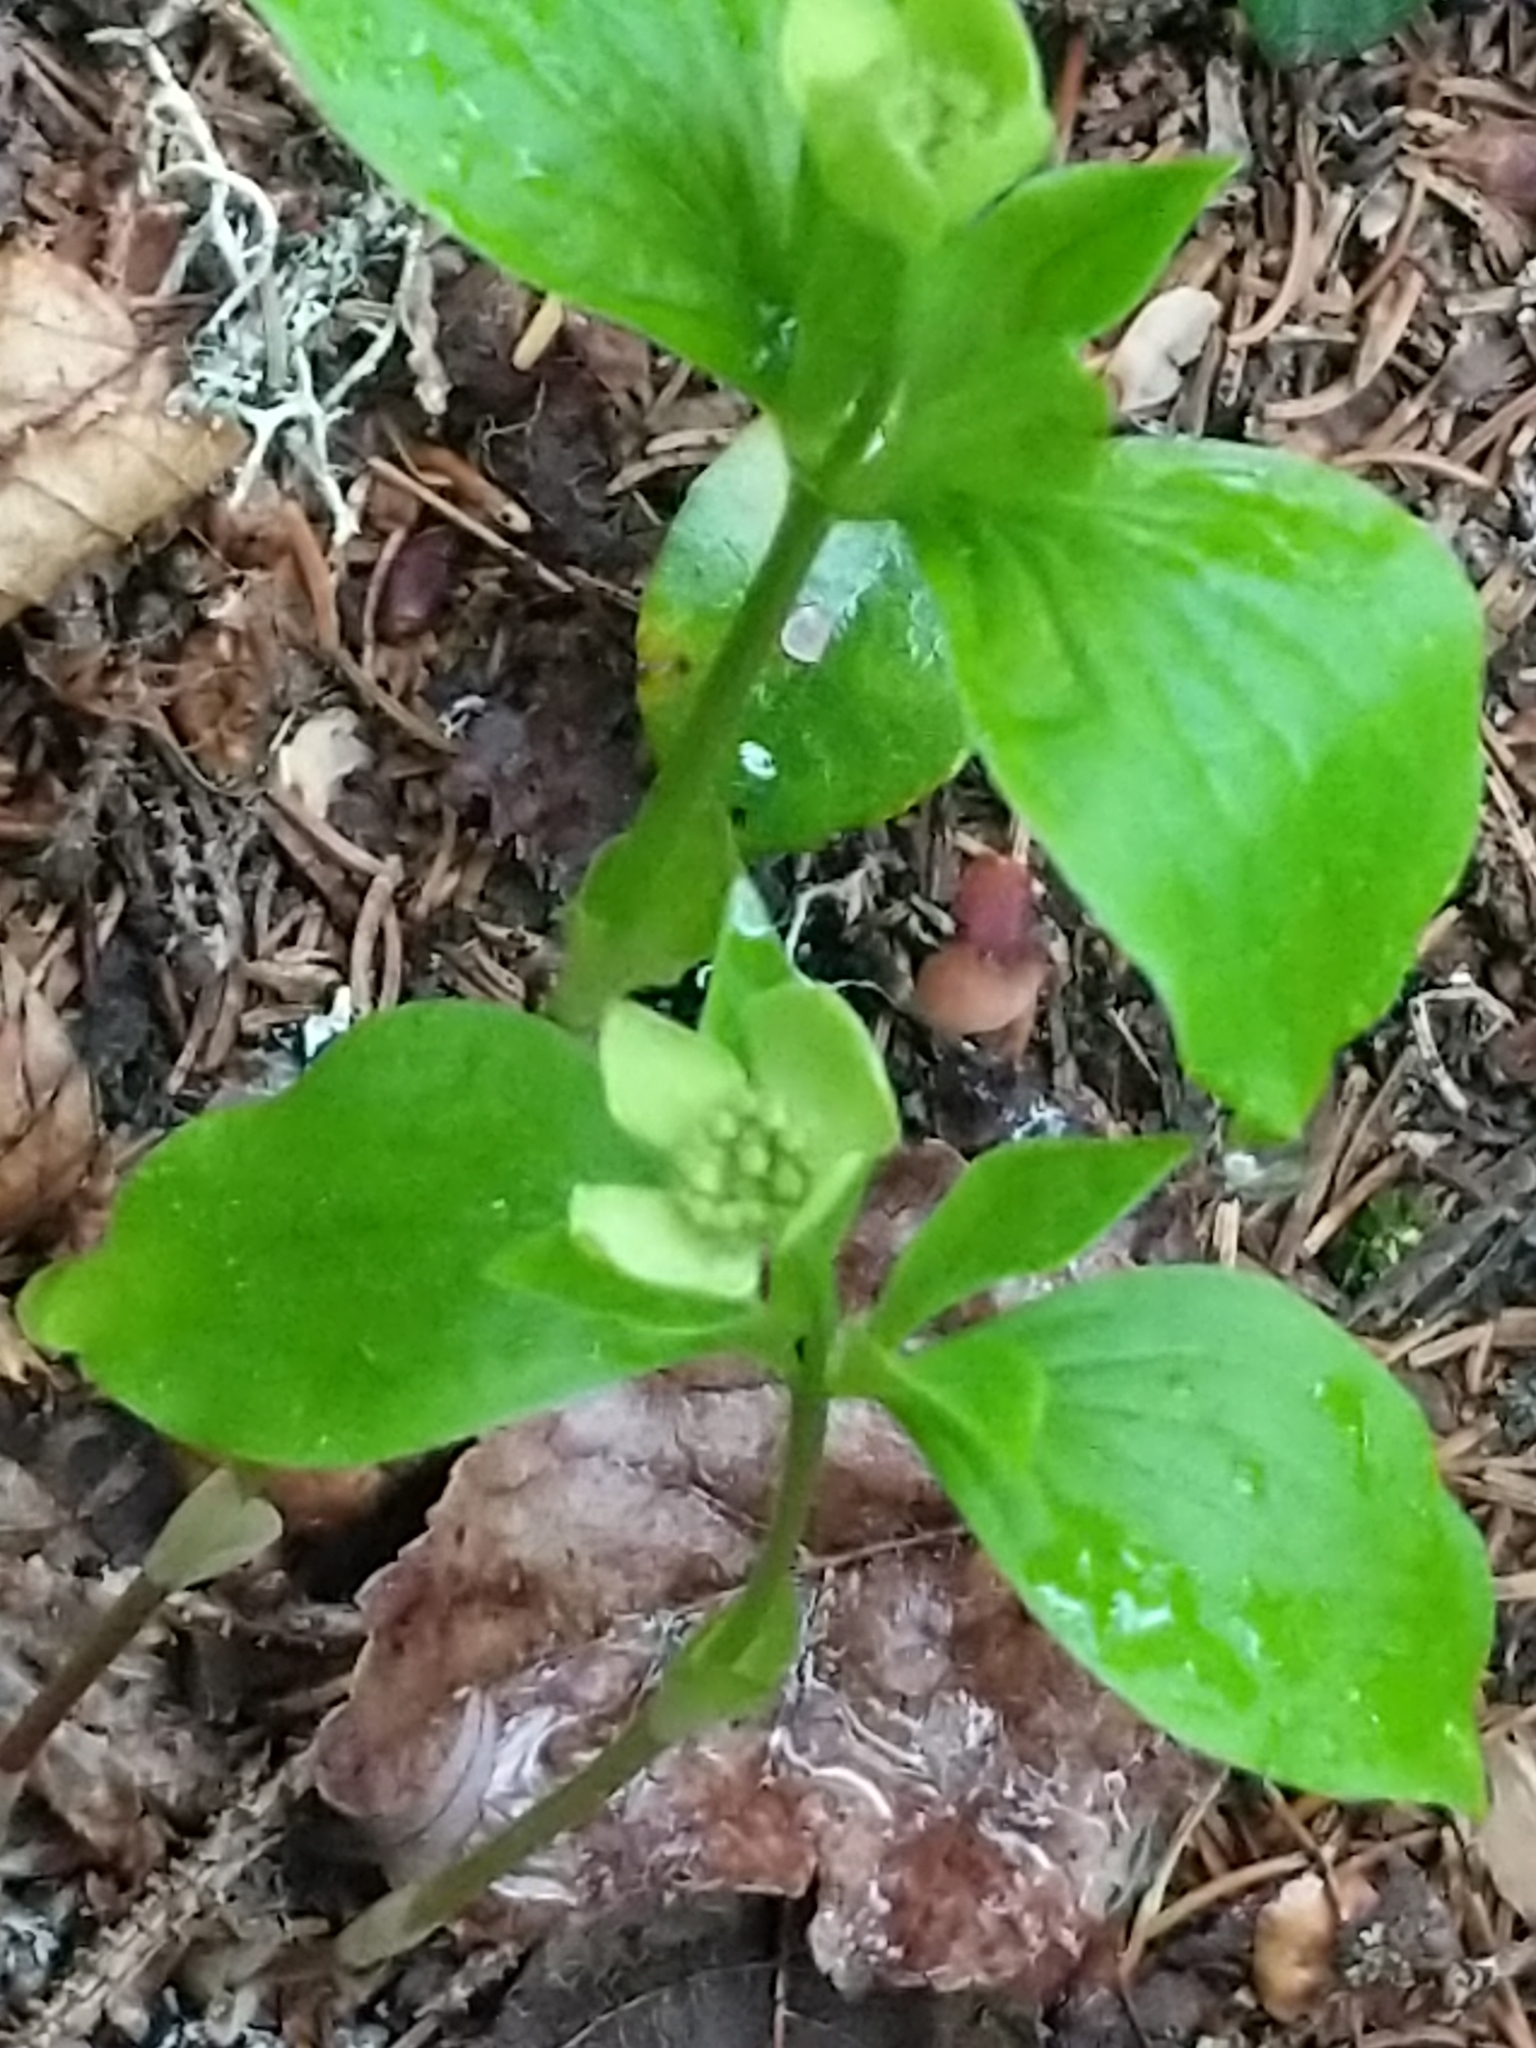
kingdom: Plantae
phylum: Tracheophyta
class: Magnoliopsida
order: Cornales
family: Cornaceae
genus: Cornus
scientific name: Cornus canadensis
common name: Creeping dogwood
